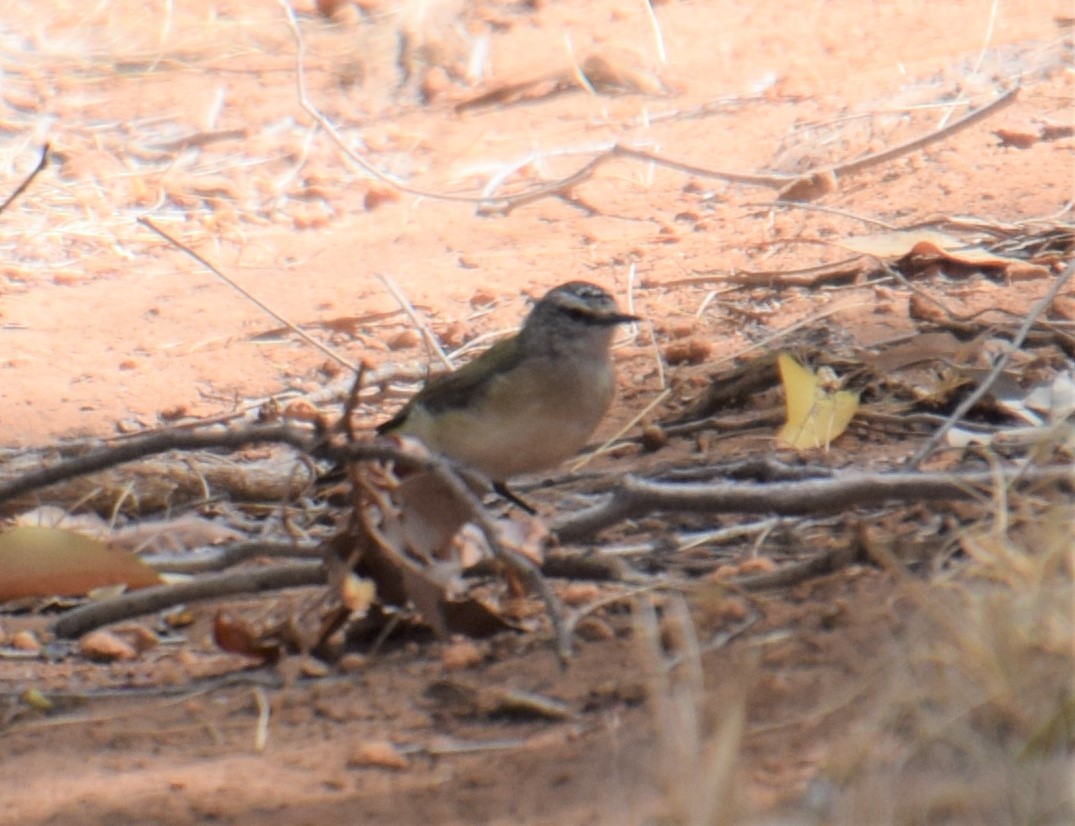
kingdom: Animalia
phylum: Chordata
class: Aves
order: Passeriformes
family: Acanthizidae
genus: Acanthiza
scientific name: Acanthiza chrysorrhoa
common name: Yellow-rumped thornbill
